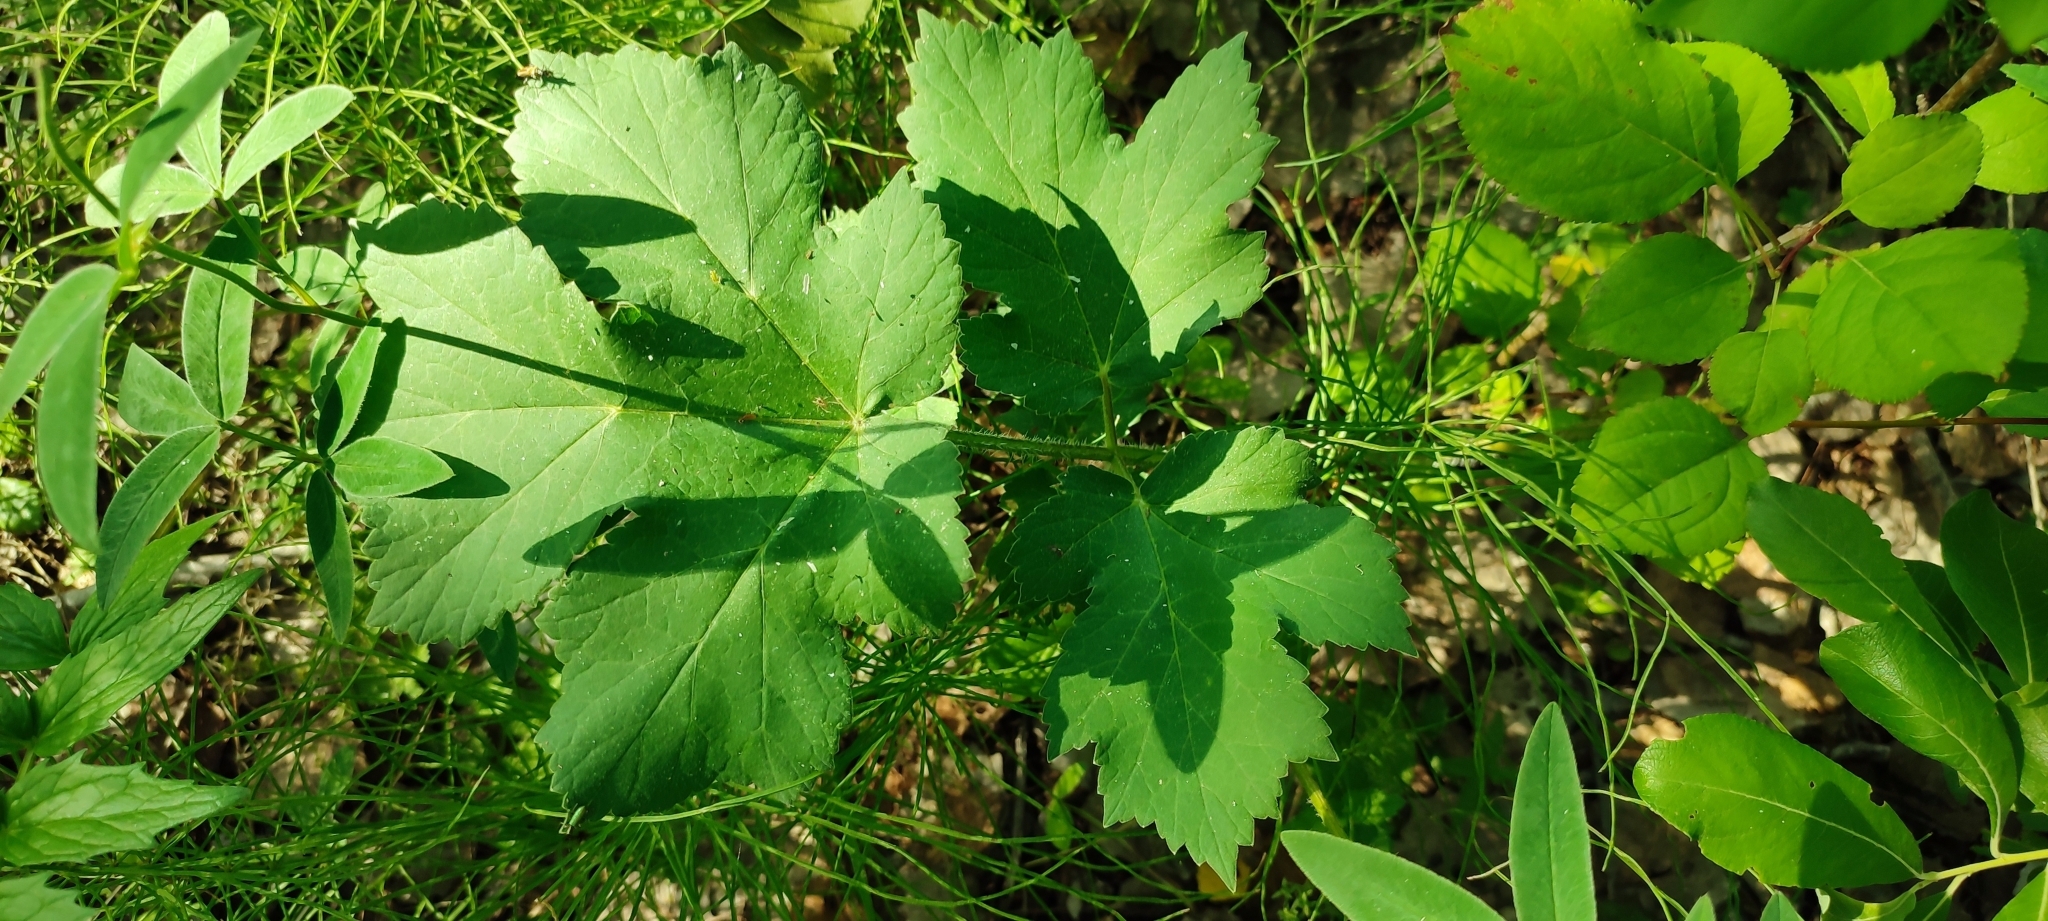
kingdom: Plantae
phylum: Tracheophyta
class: Magnoliopsida
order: Apiales
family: Apiaceae
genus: Heracleum
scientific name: Heracleum sphondylium
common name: Hogweed
